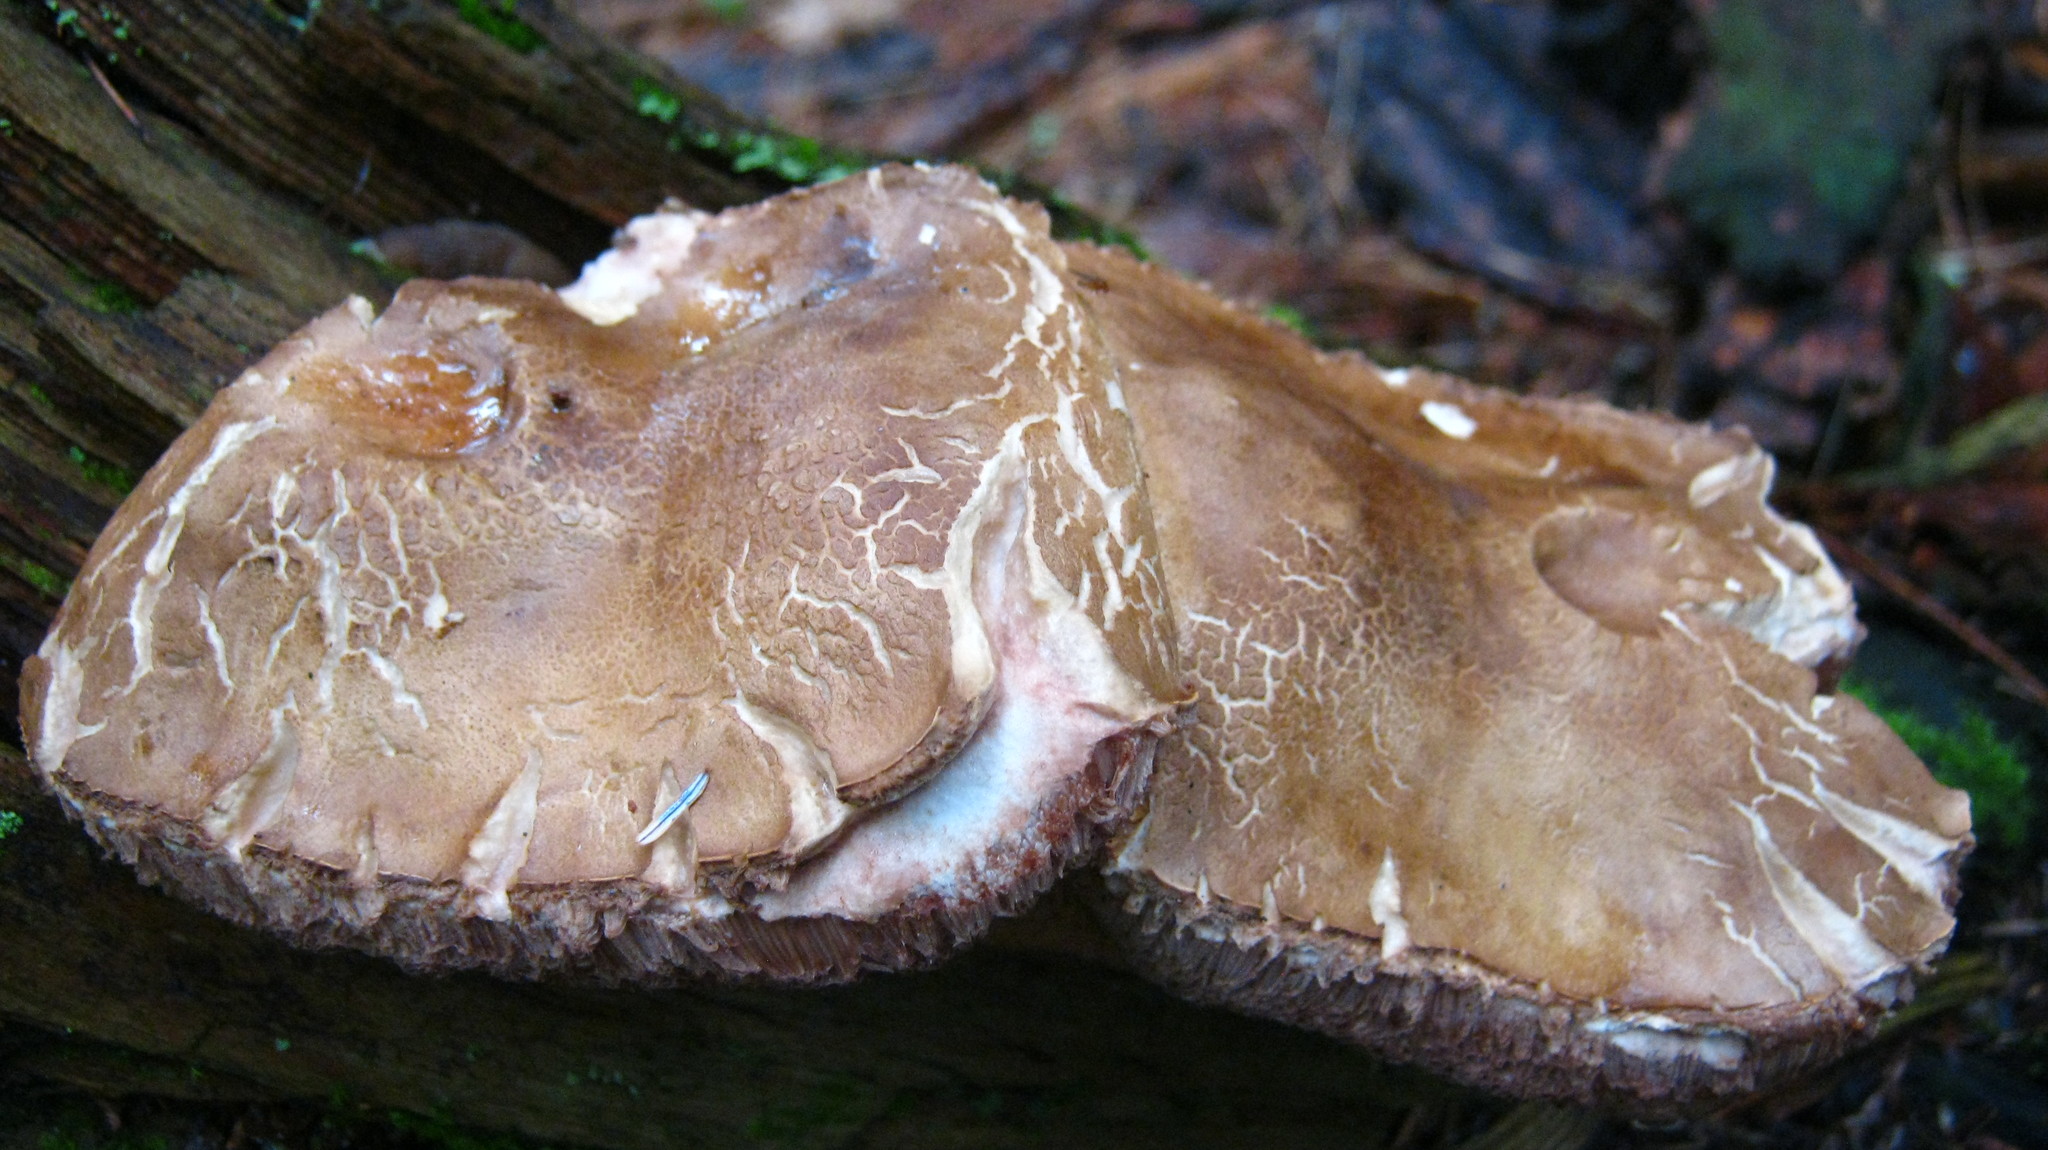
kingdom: Fungi
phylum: Basidiomycota
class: Agaricomycetes
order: Boletales
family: Boletaceae
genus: Tylopilus
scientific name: Tylopilus felleus
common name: Bitter bolete
